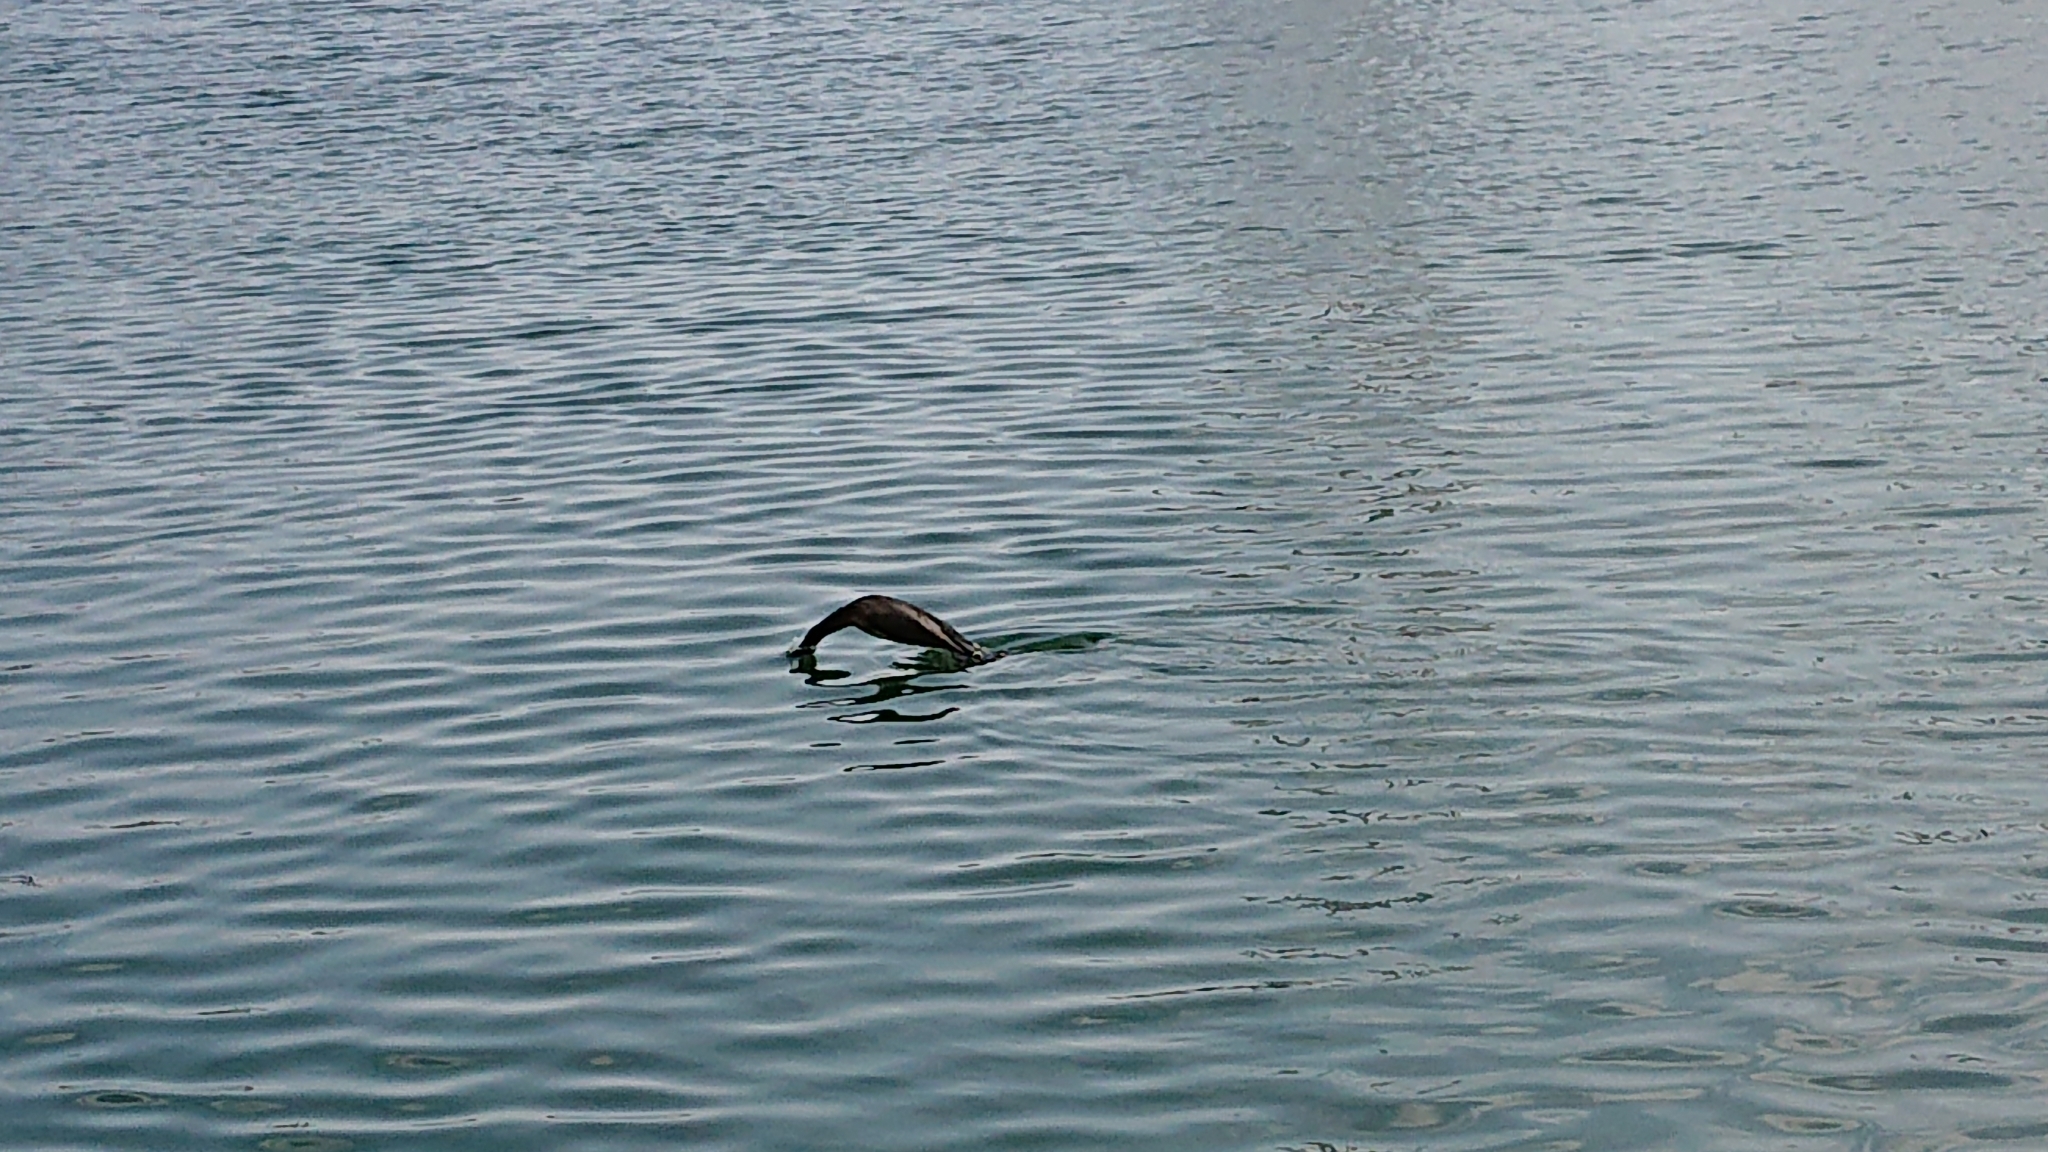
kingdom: Animalia
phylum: Chordata
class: Aves
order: Suliformes
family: Phalacrocoracidae
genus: Phalacrocorax
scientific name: Phalacrocorax carbo
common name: Great cormorant
